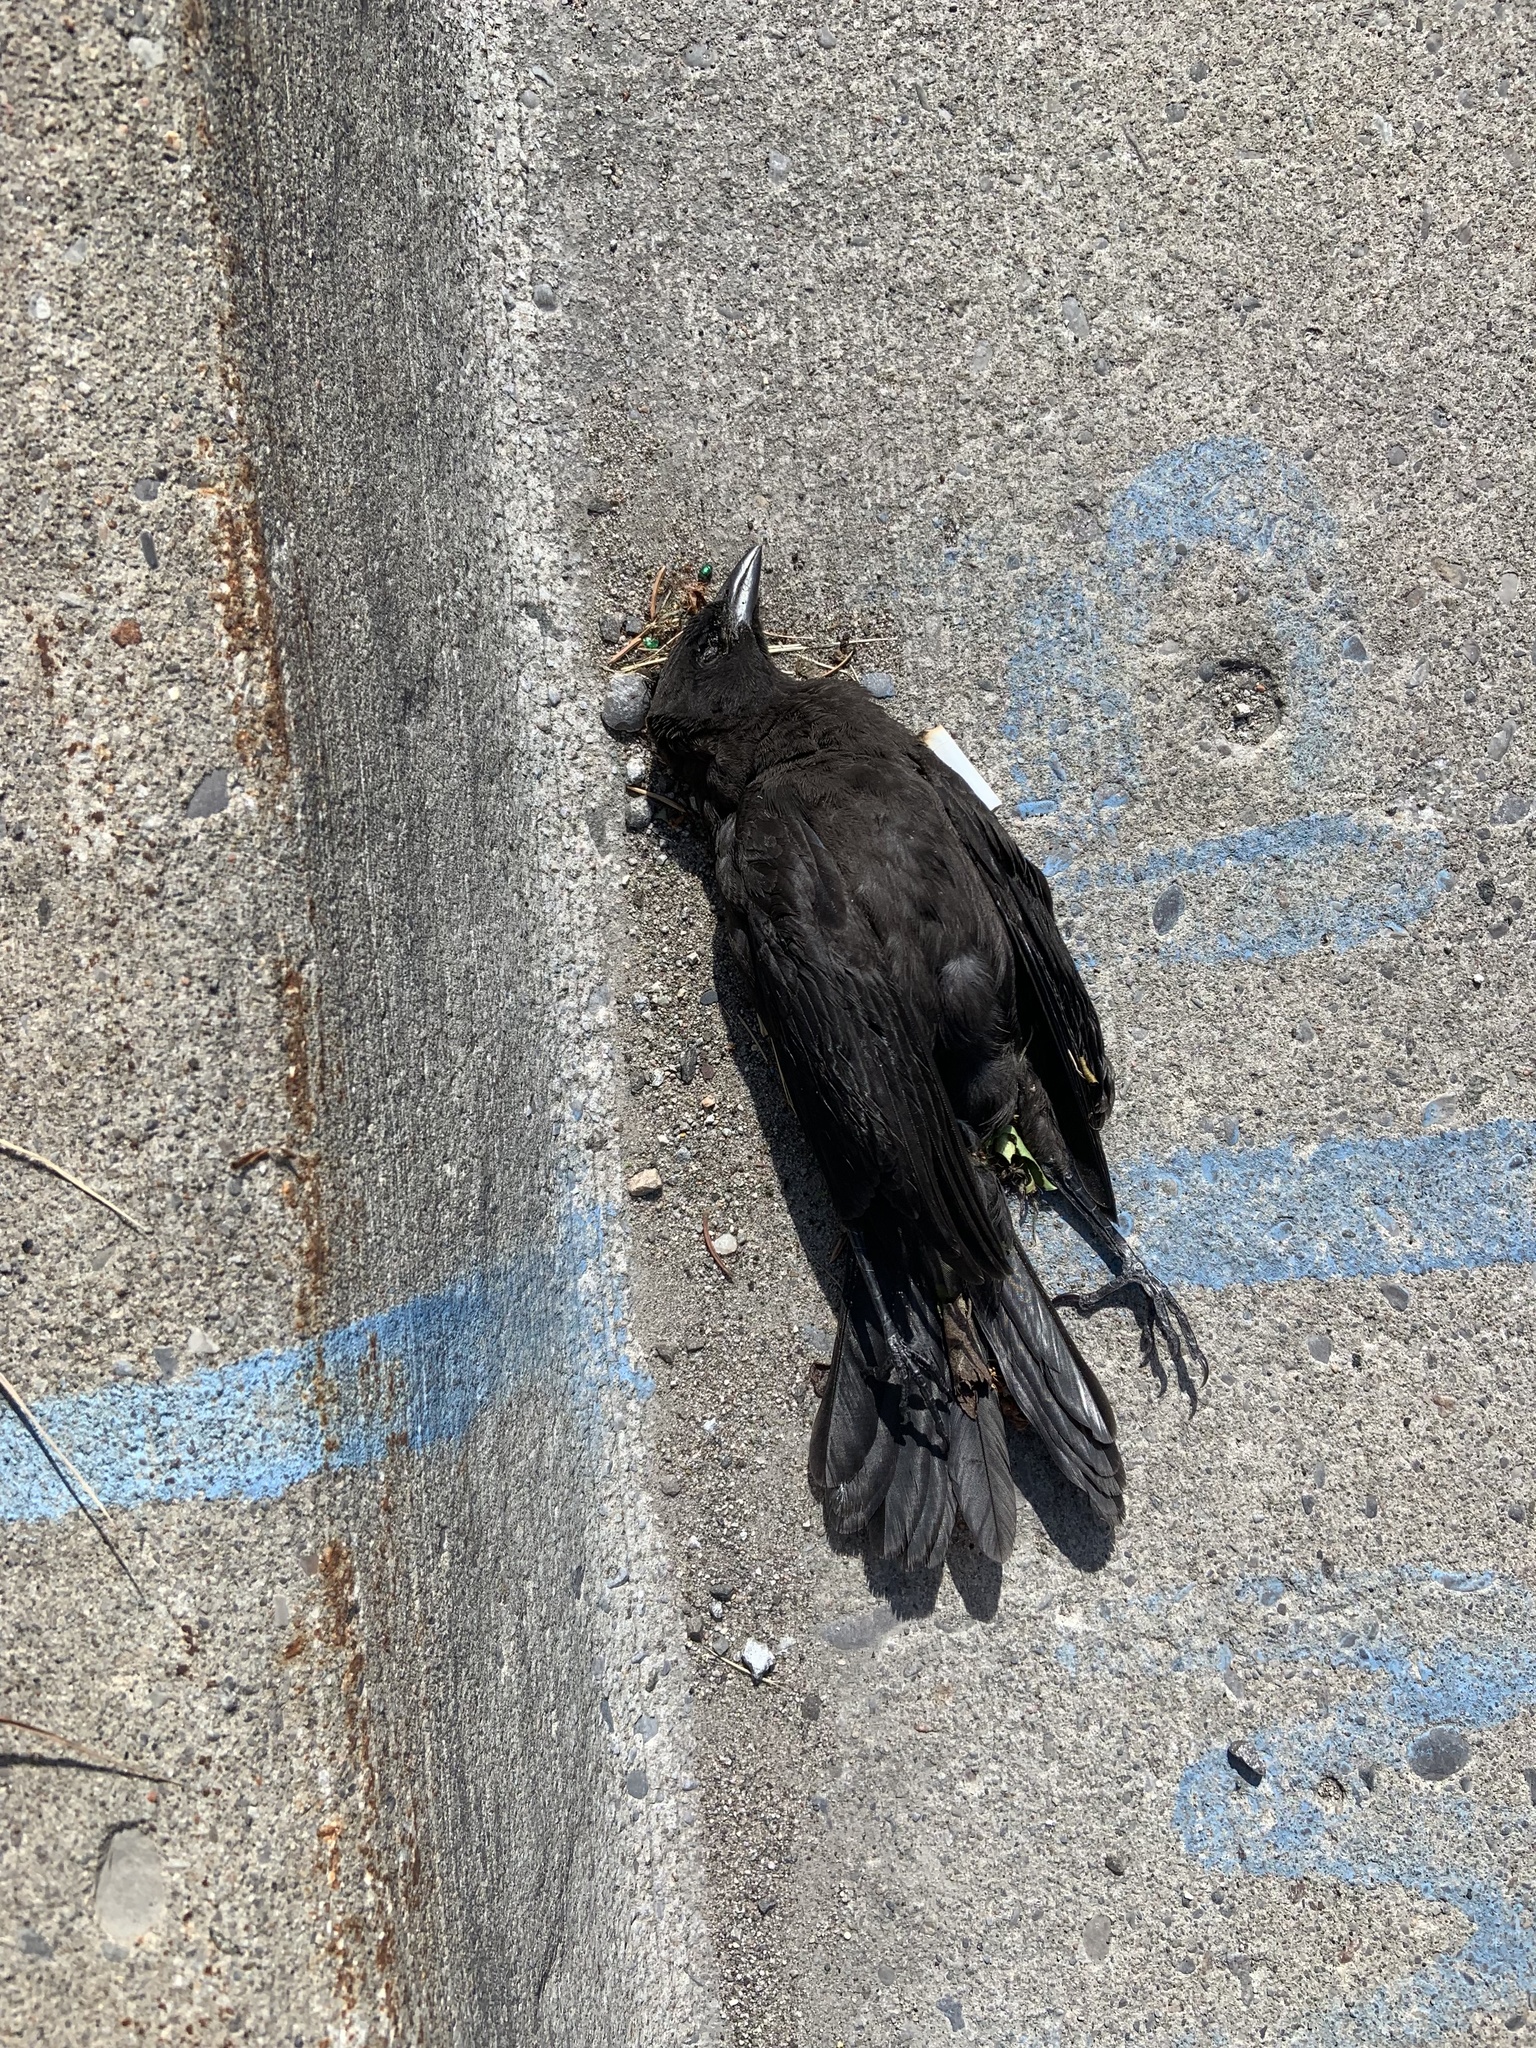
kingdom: Animalia
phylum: Chordata
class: Aves
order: Passeriformes
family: Corvidae
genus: Corvus
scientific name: Corvus brachyrhynchos
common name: American crow
